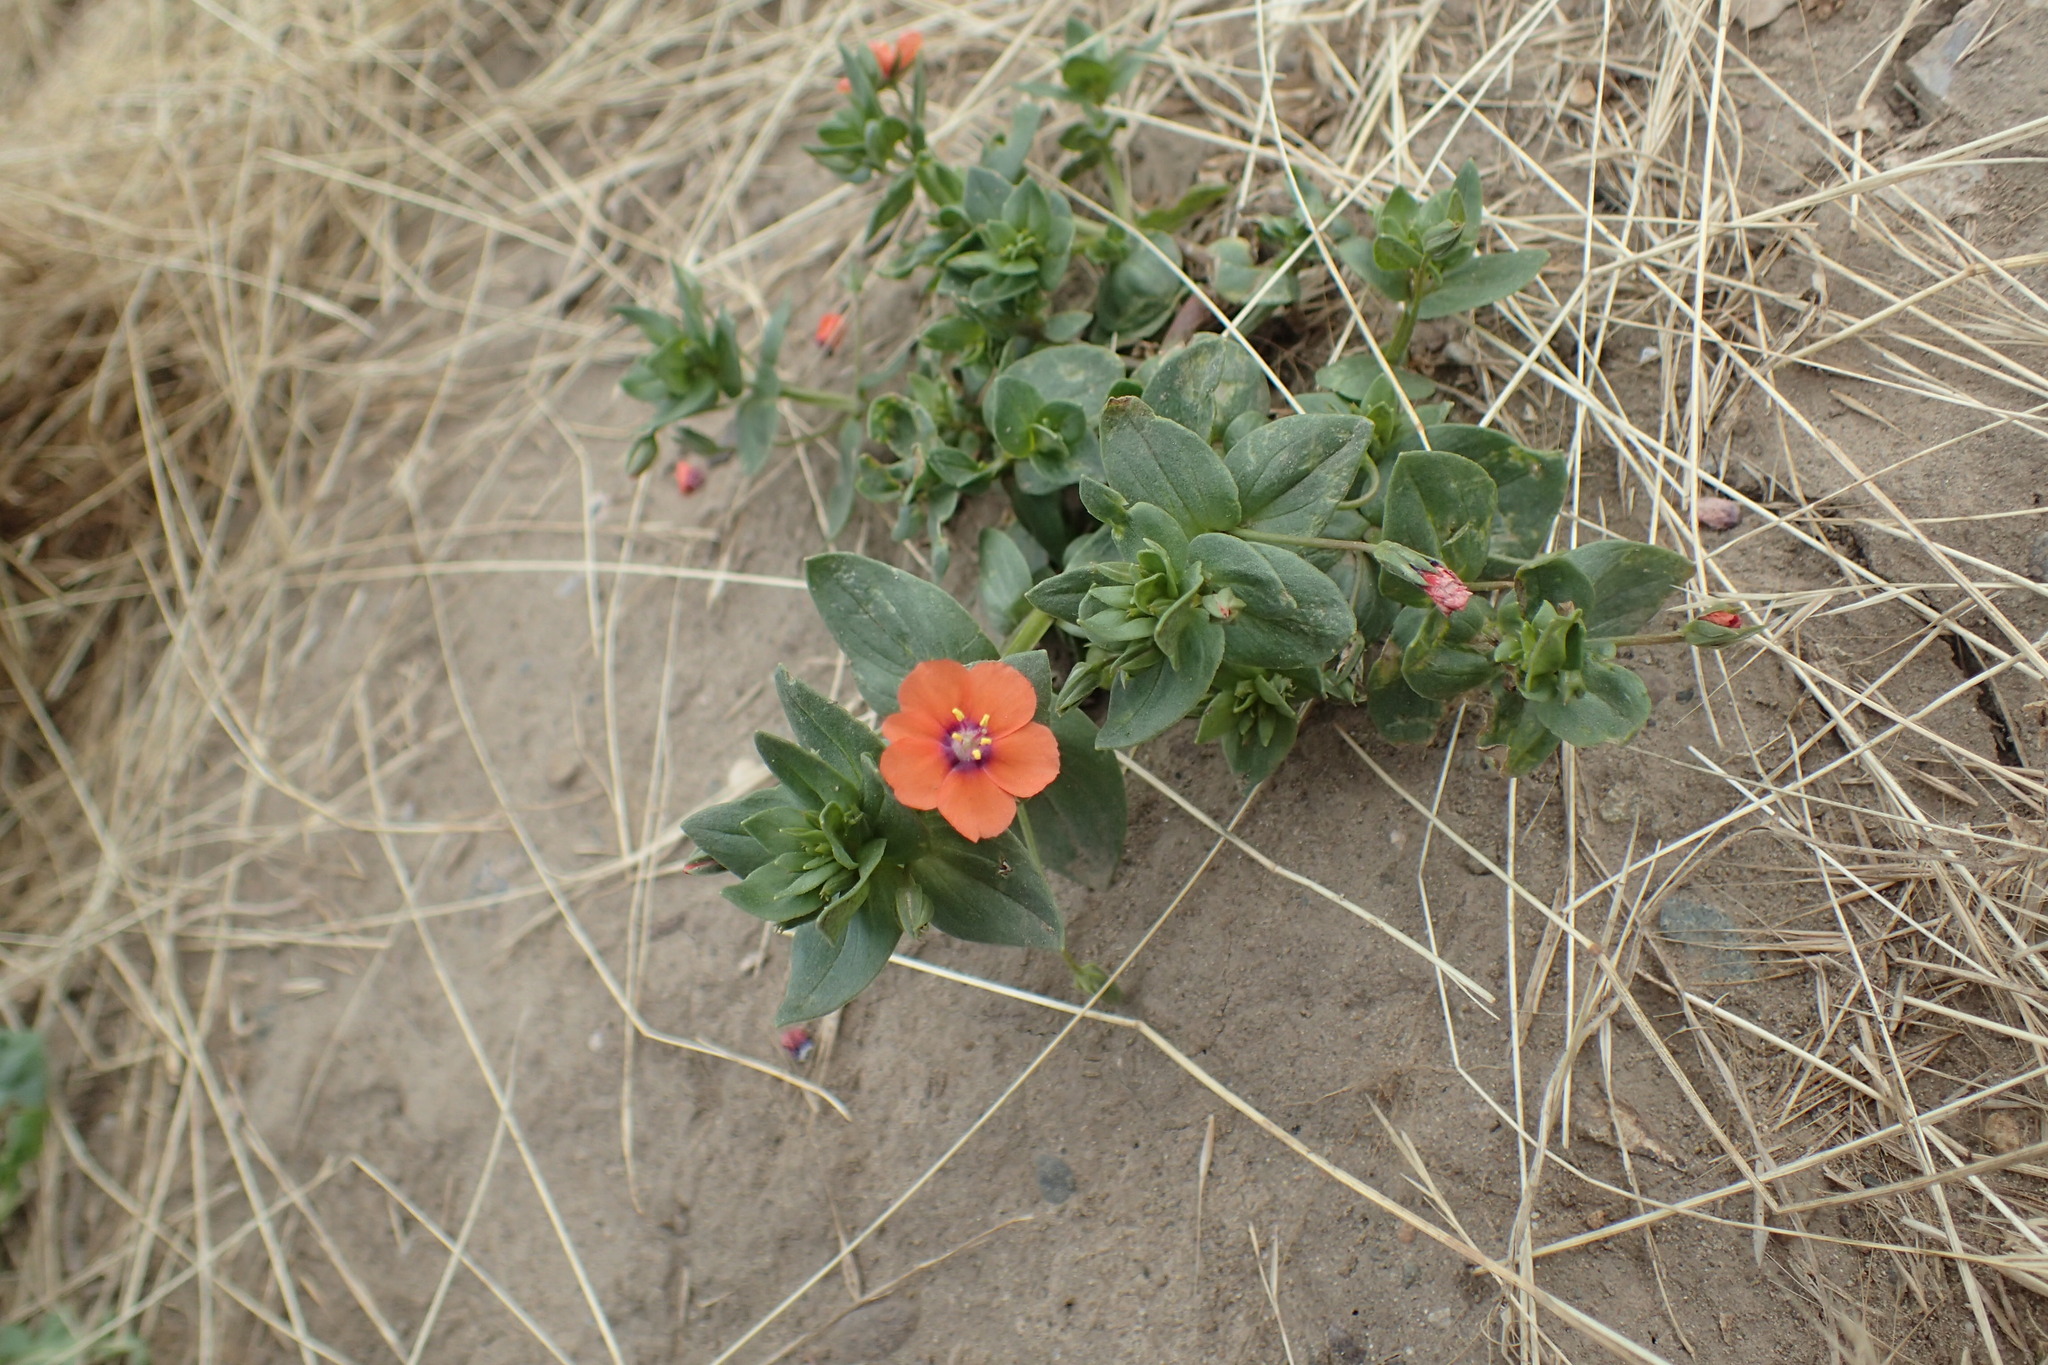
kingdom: Plantae
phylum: Tracheophyta
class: Magnoliopsida
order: Ericales
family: Primulaceae
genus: Lysimachia
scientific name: Lysimachia arvensis
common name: Scarlet pimpernel
